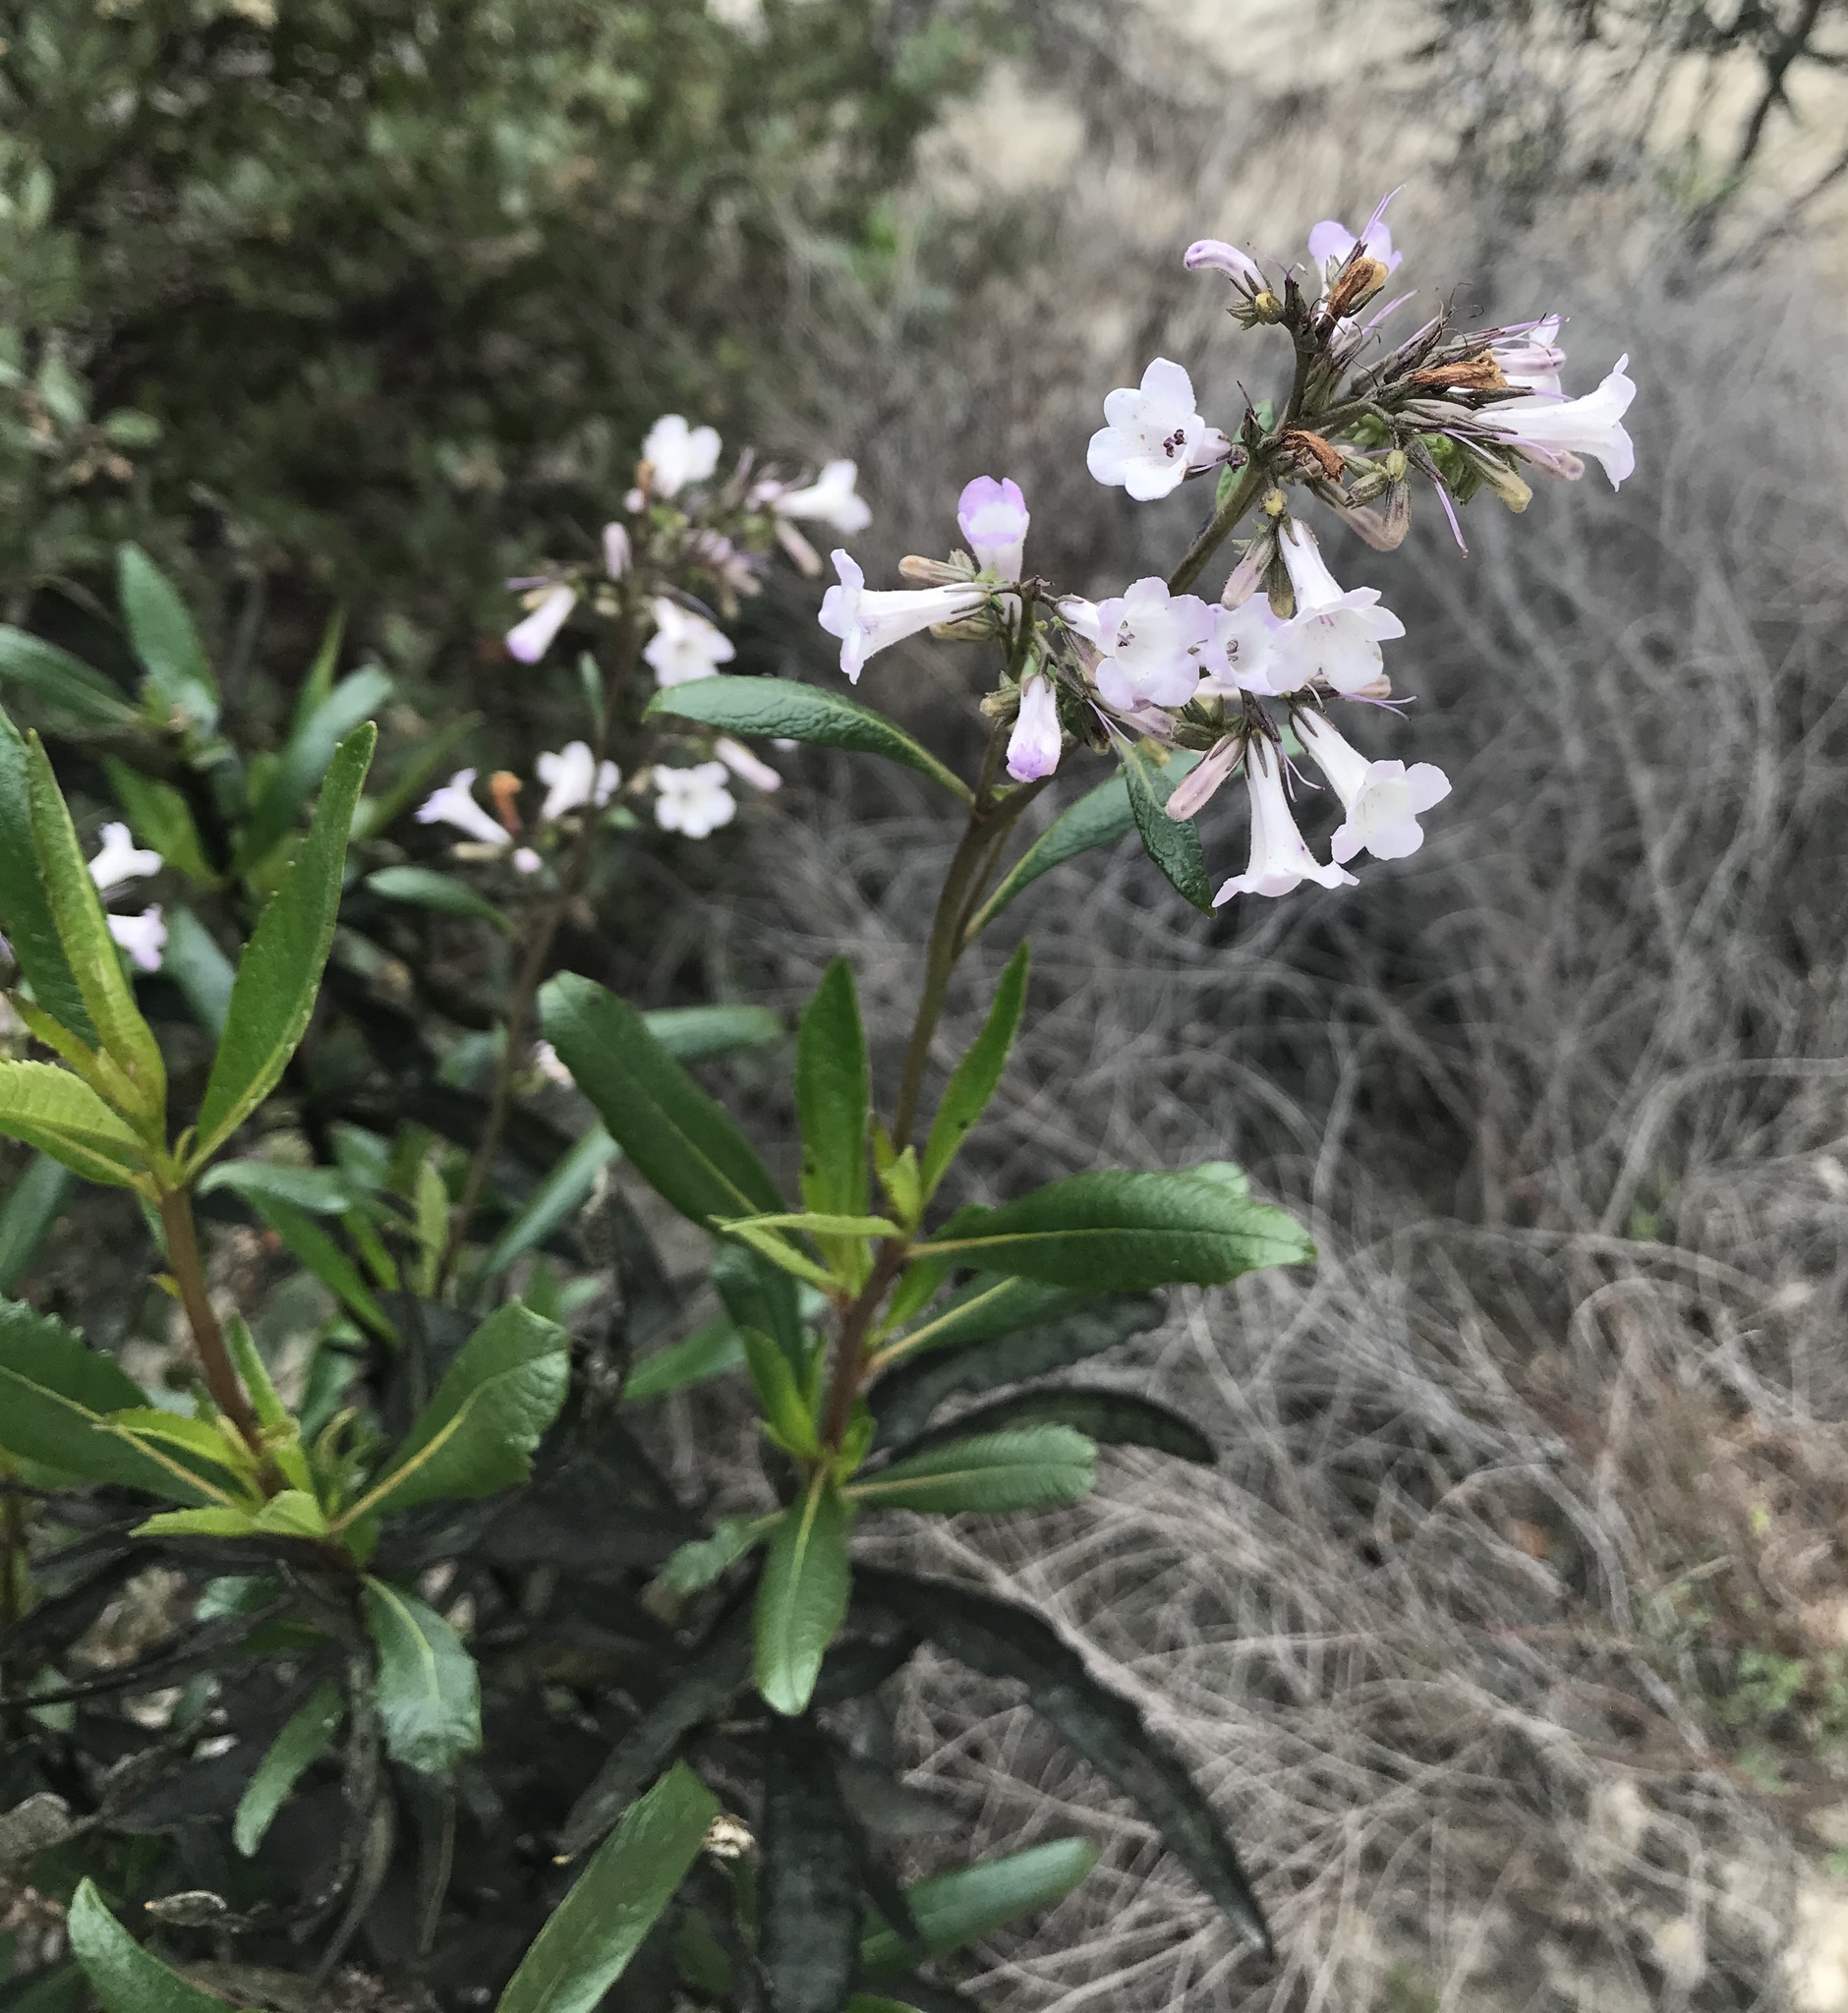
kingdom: Plantae
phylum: Tracheophyta
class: Magnoliopsida
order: Boraginales
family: Namaceae
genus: Eriodictyon
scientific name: Eriodictyon californicum
